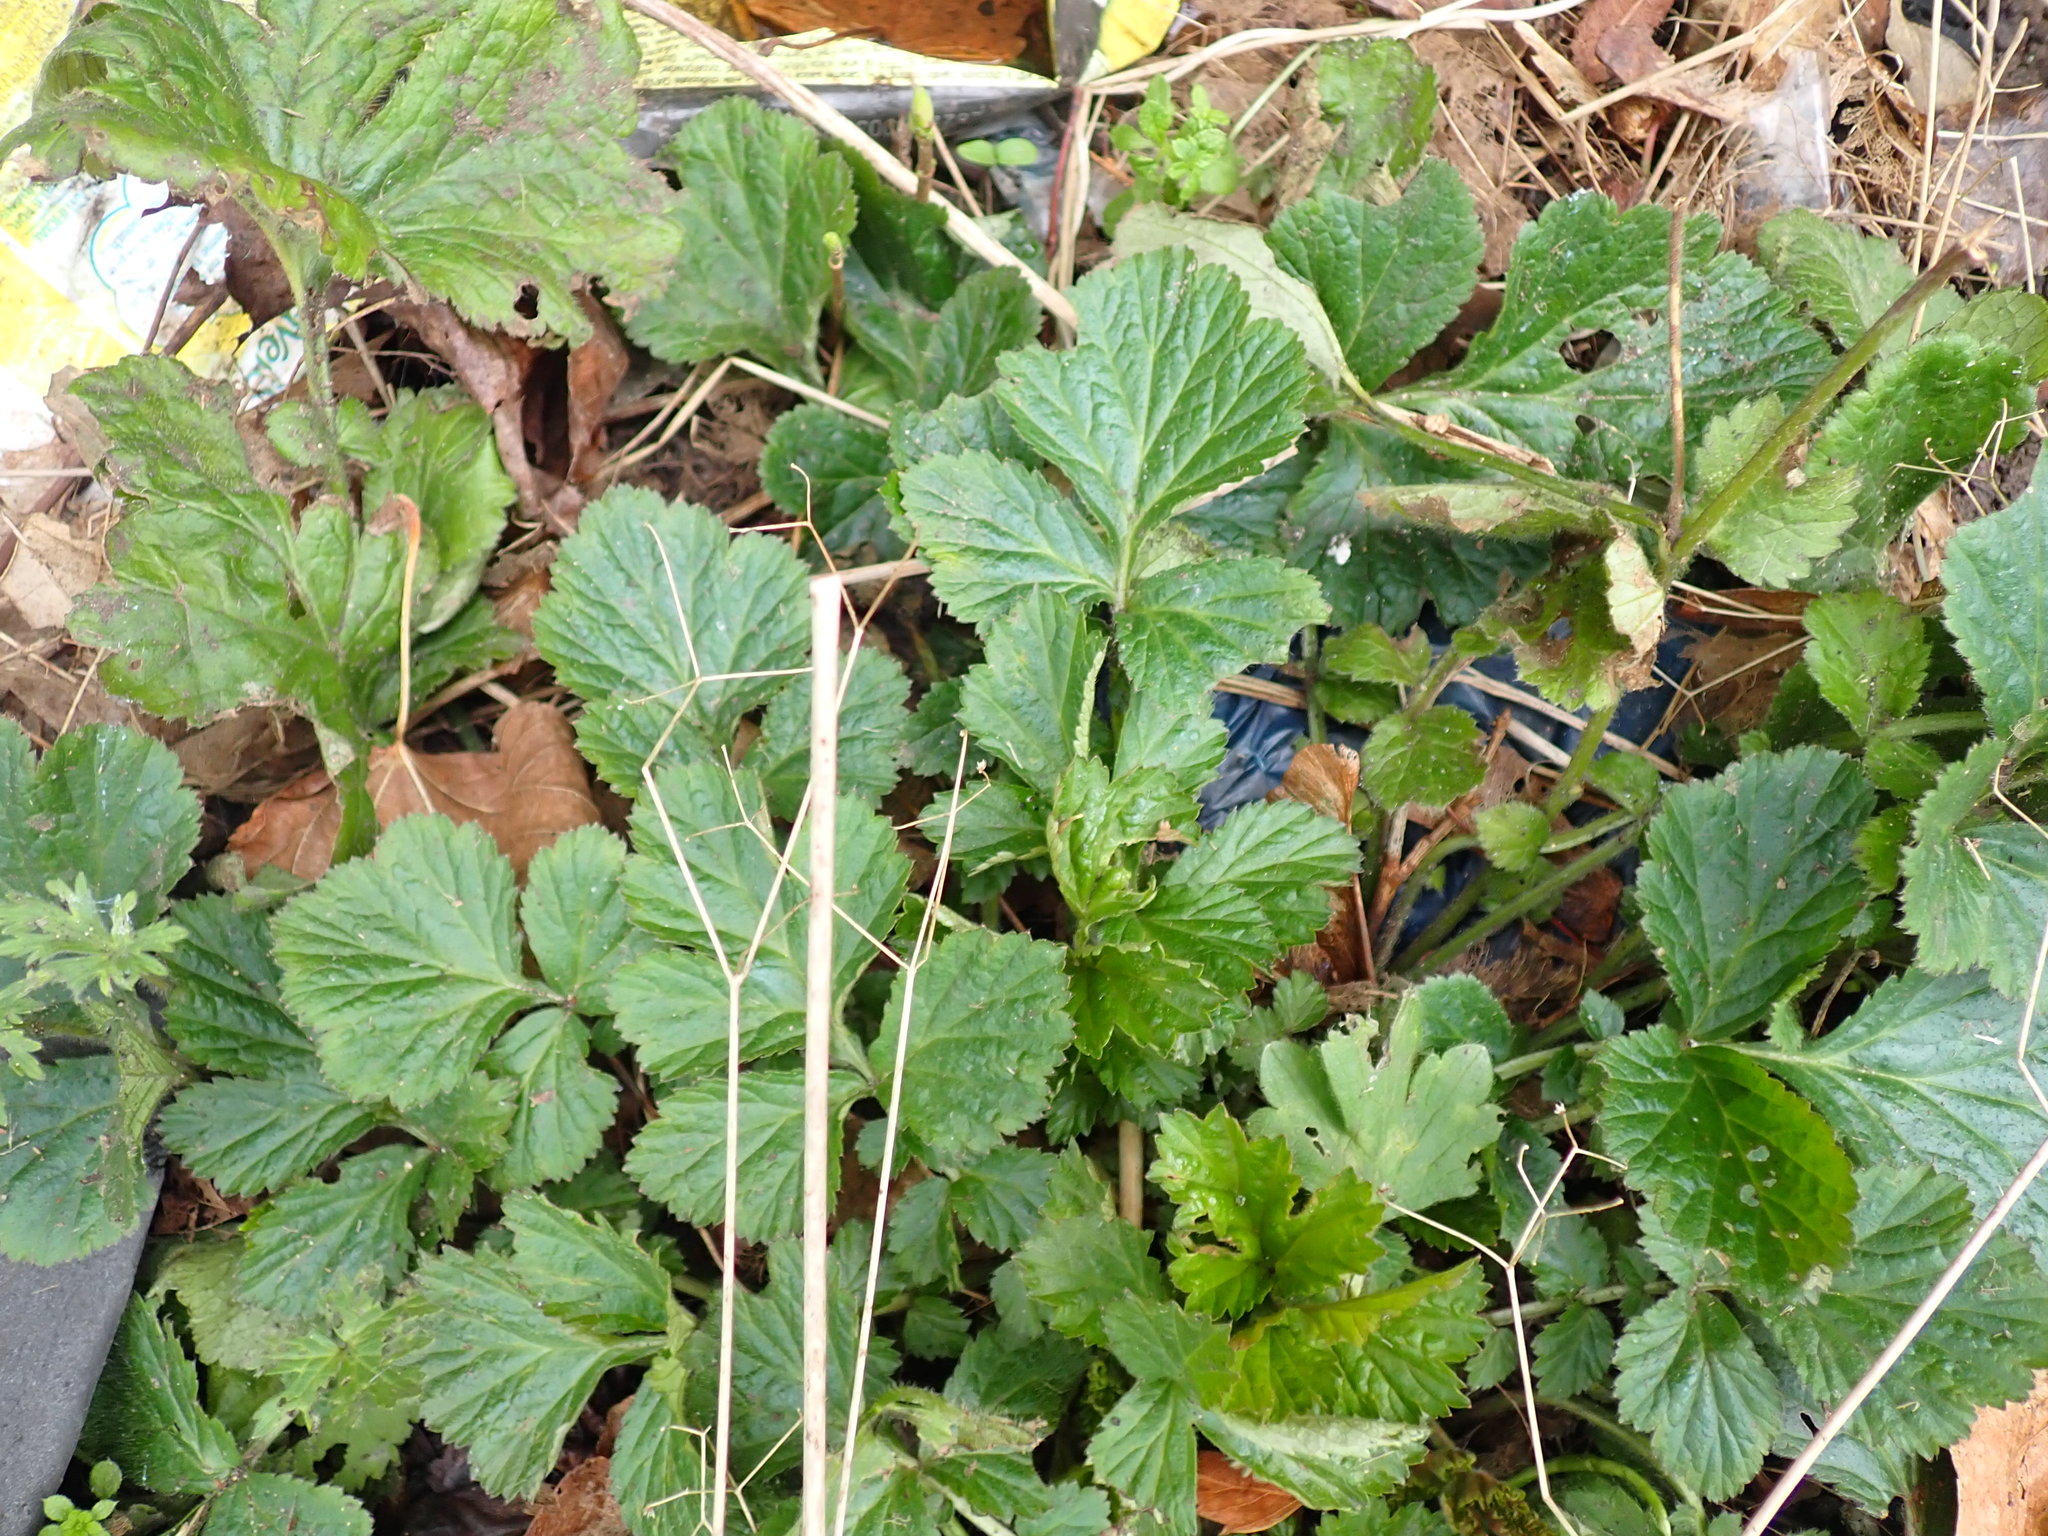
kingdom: Plantae
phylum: Tracheophyta
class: Magnoliopsida
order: Rosales
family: Rosaceae
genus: Geum
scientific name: Geum urbanum
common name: Wood avens
